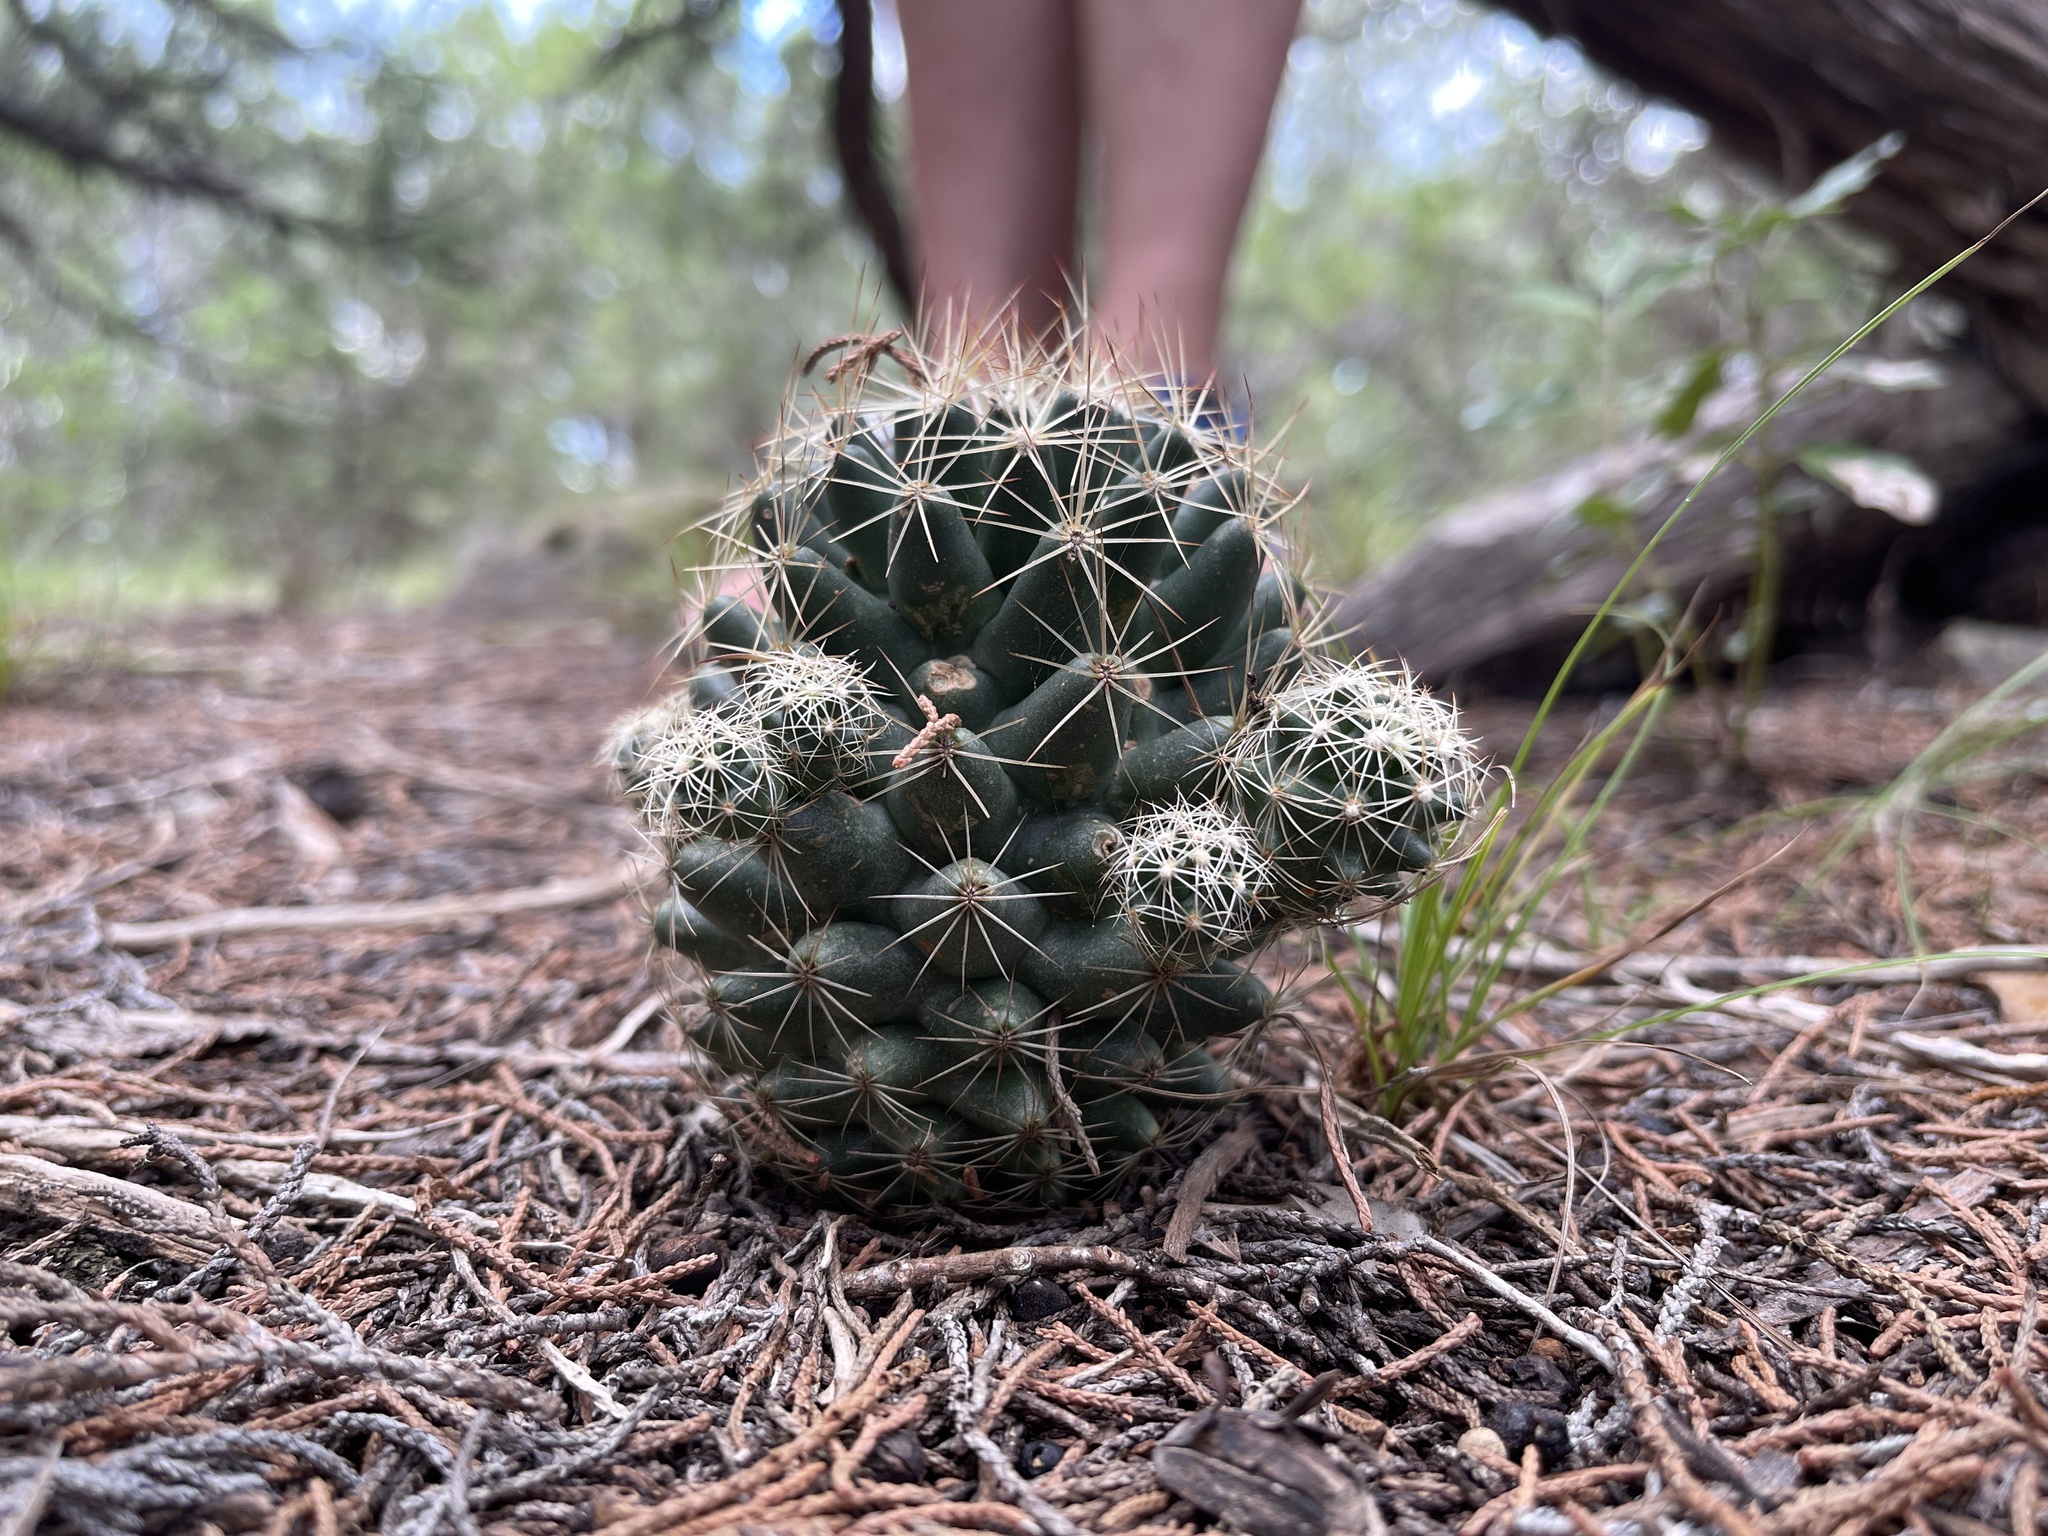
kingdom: Plantae
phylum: Tracheophyta
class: Magnoliopsida
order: Caryophyllales
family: Cactaceae
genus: Coryphantha
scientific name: Coryphantha sulcata
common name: Finger cactus
